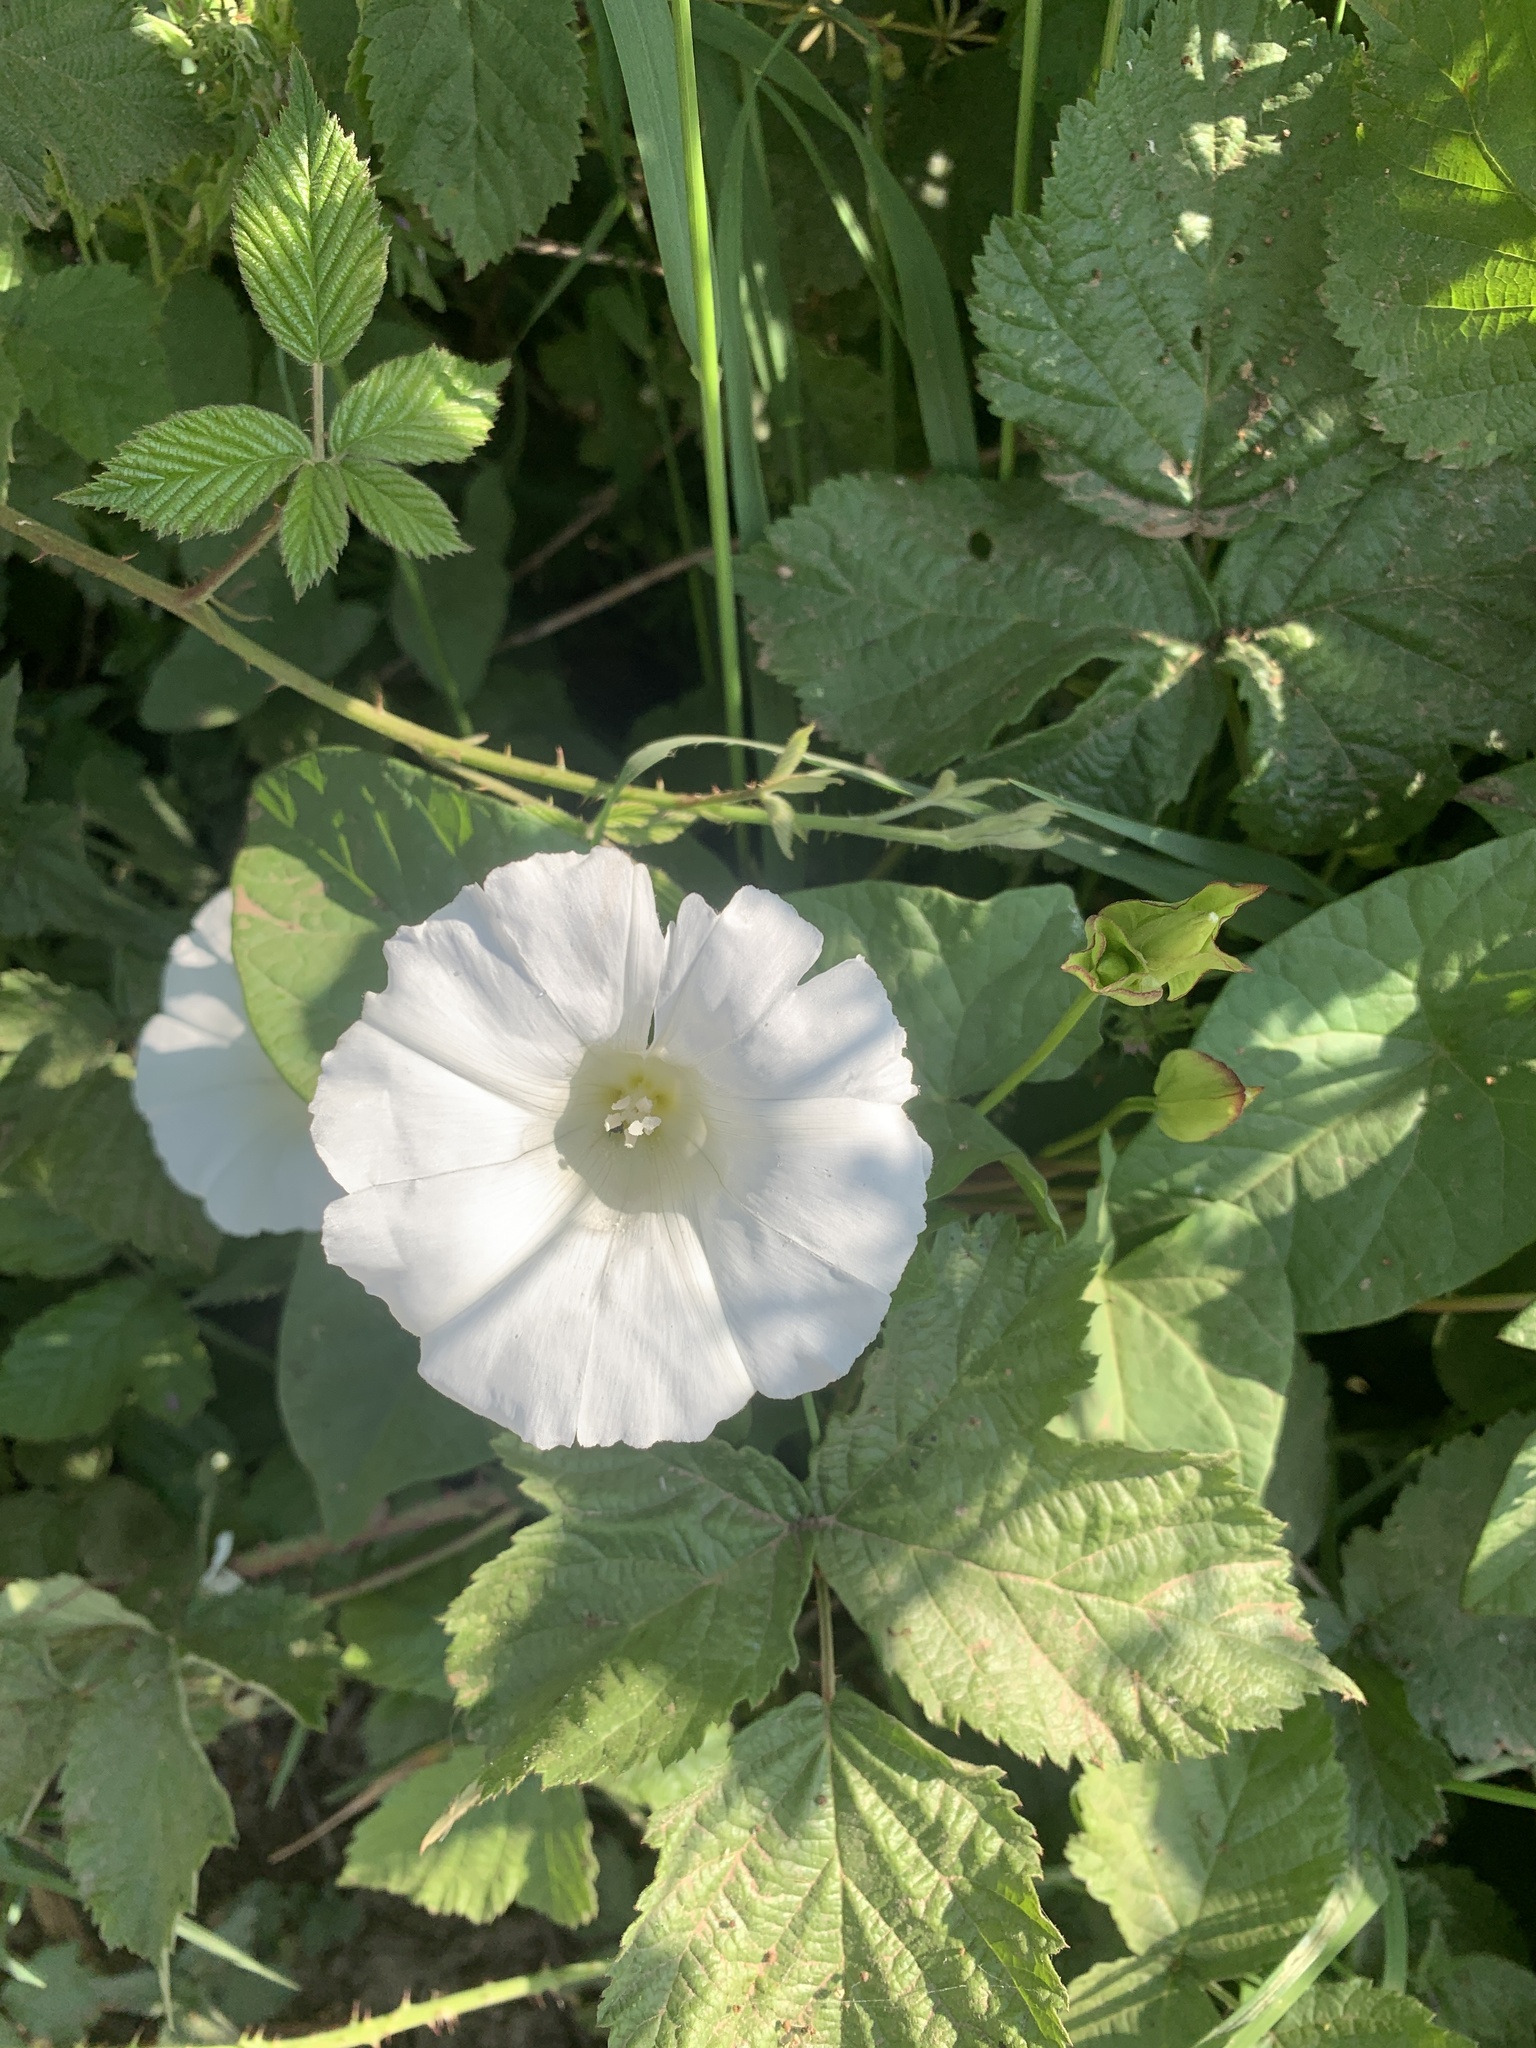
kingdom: Plantae
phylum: Tracheophyta
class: Magnoliopsida
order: Solanales
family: Convolvulaceae
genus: Calystegia
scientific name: Calystegia silvatica
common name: Large bindweed
